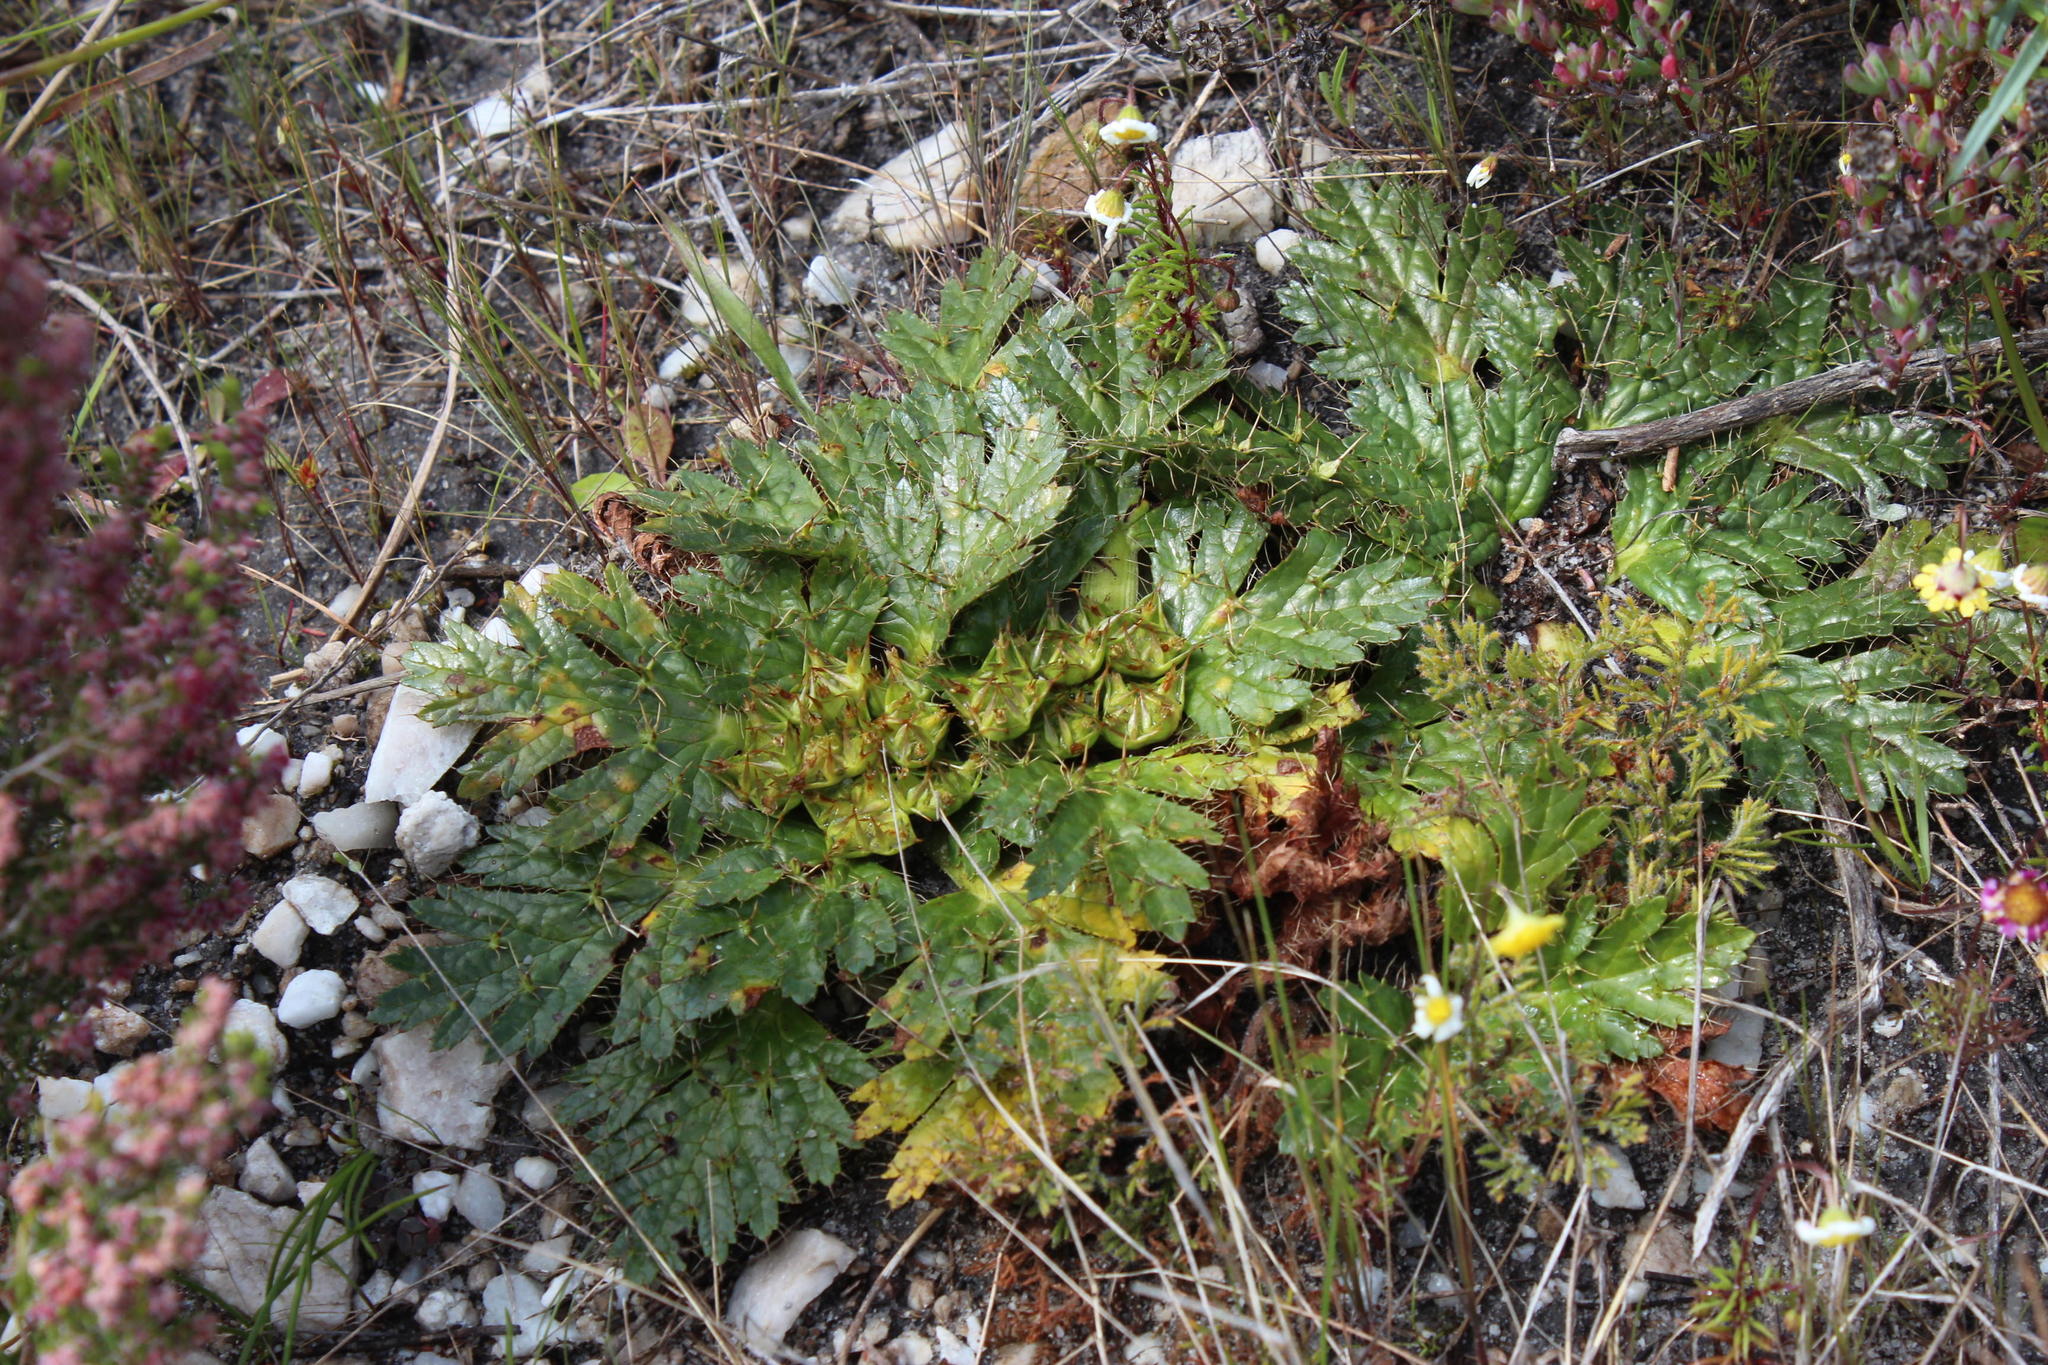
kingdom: Plantae
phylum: Tracheophyta
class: Magnoliopsida
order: Apiales
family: Apiaceae
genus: Arctopus
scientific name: Arctopus echinatus
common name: Platdoring
